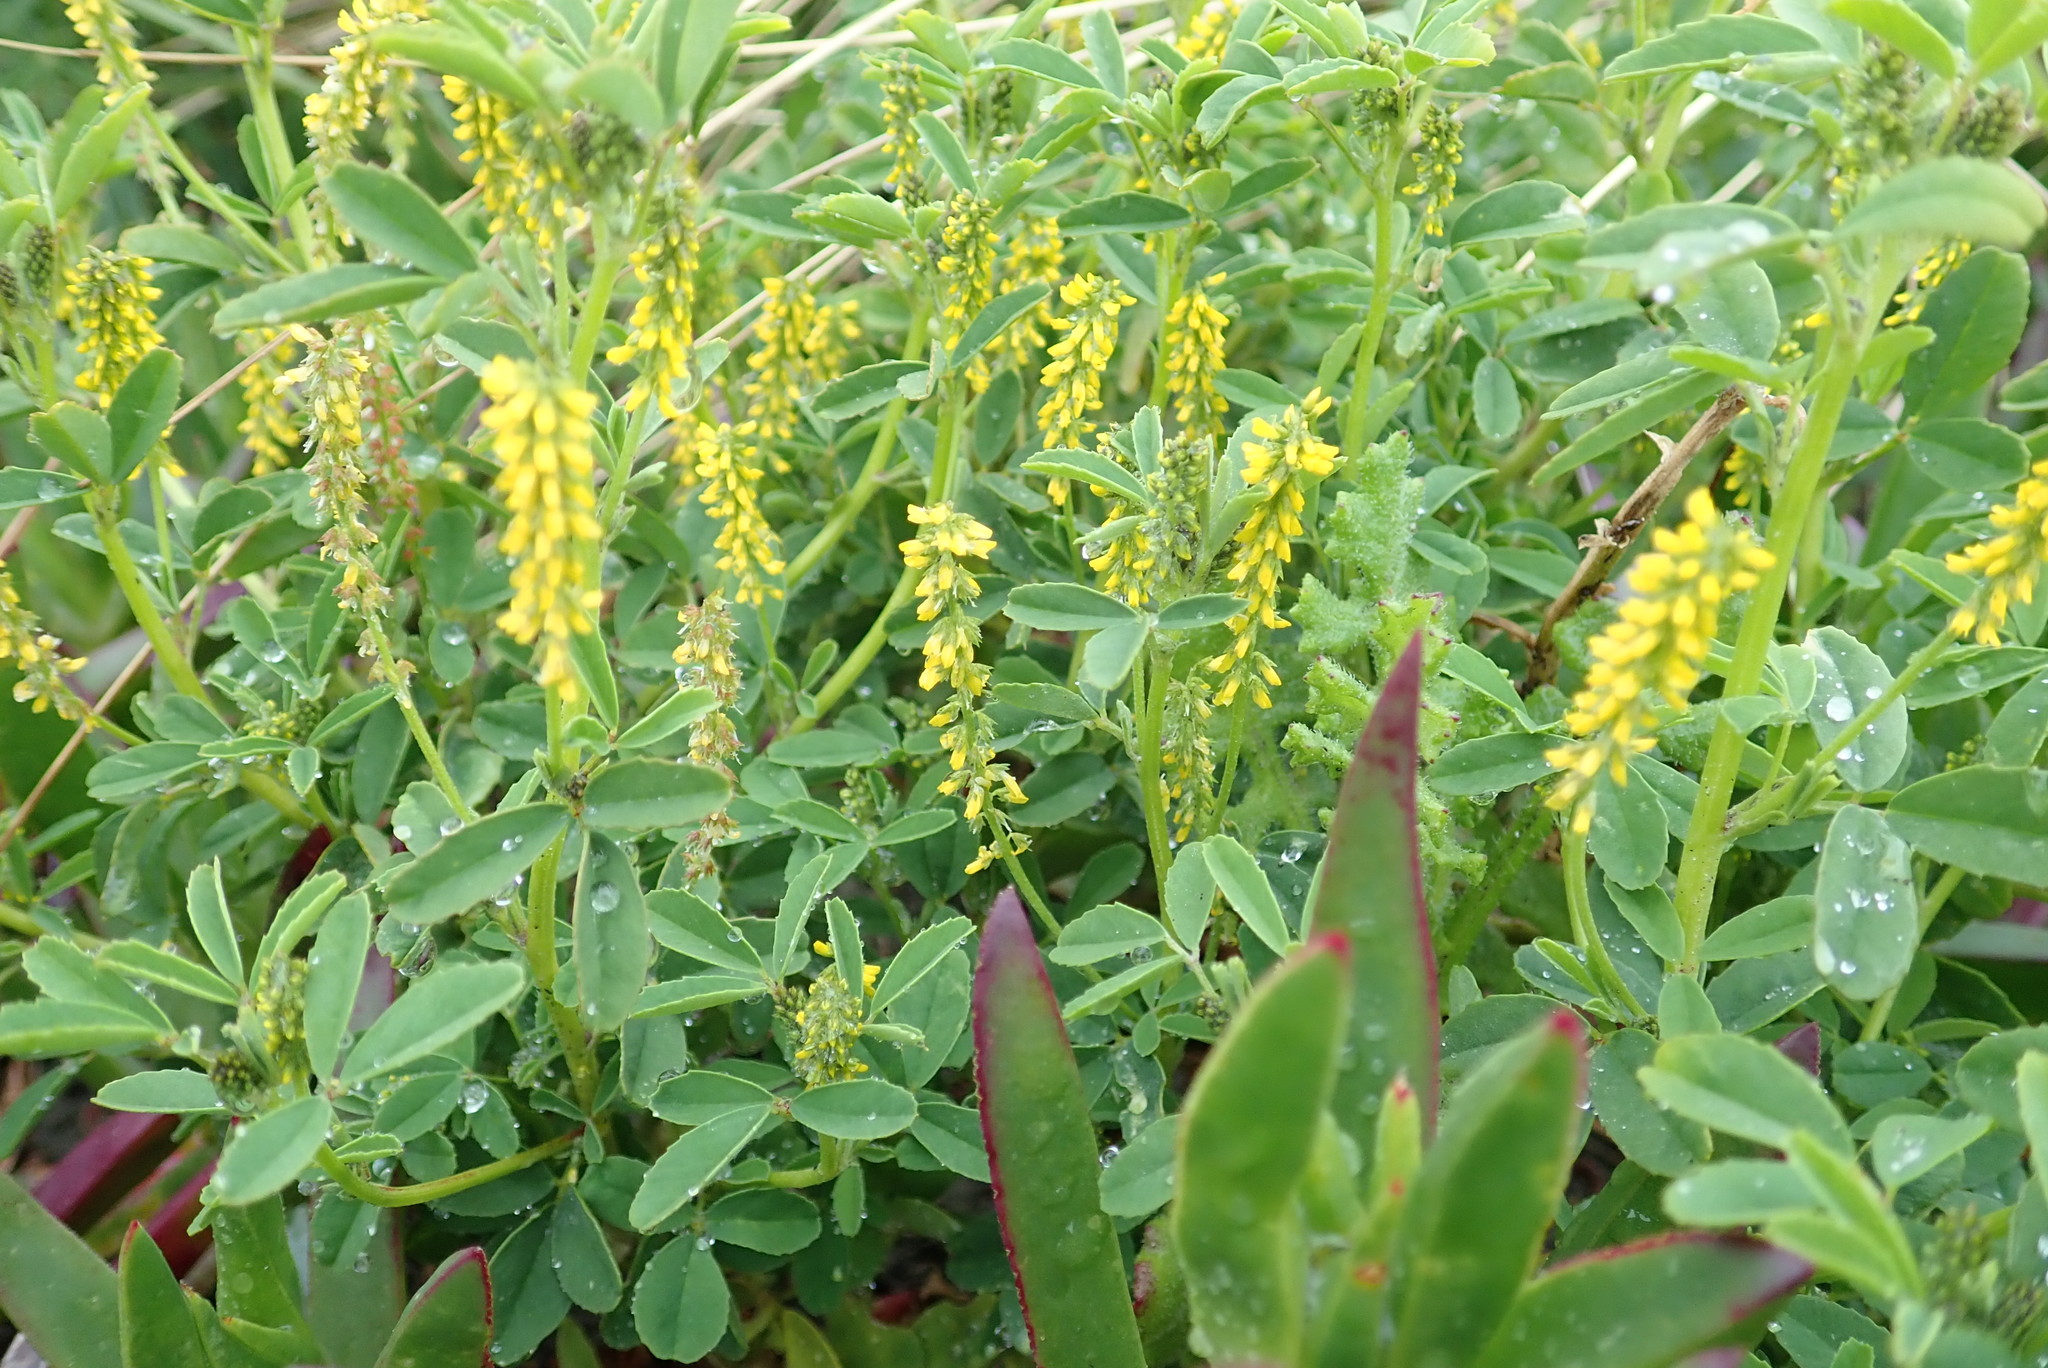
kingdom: Plantae
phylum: Tracheophyta
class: Magnoliopsida
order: Fabales
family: Fabaceae
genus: Melilotus
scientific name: Melilotus indicus
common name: Small melilot
